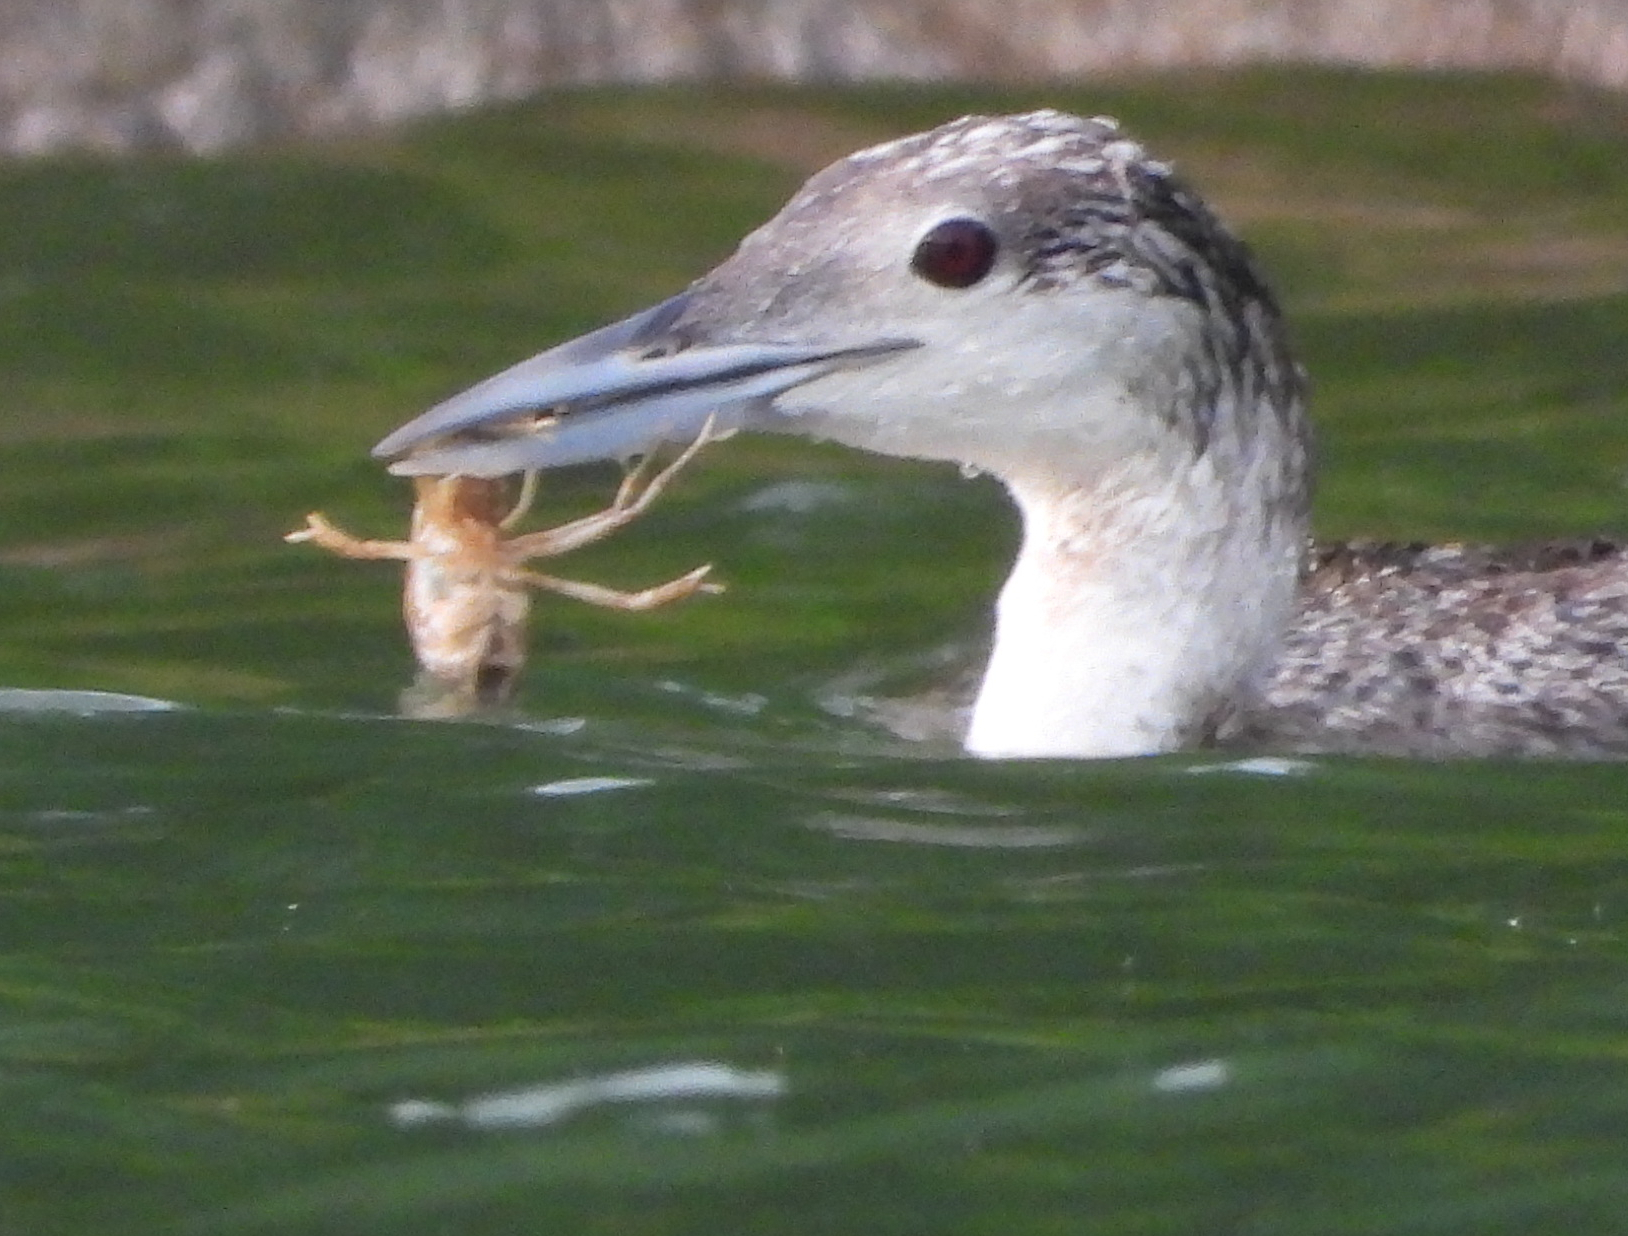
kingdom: Animalia
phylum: Chordata
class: Aves
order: Gaviiformes
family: Gaviidae
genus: Gavia
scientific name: Gavia immer
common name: Common loon
